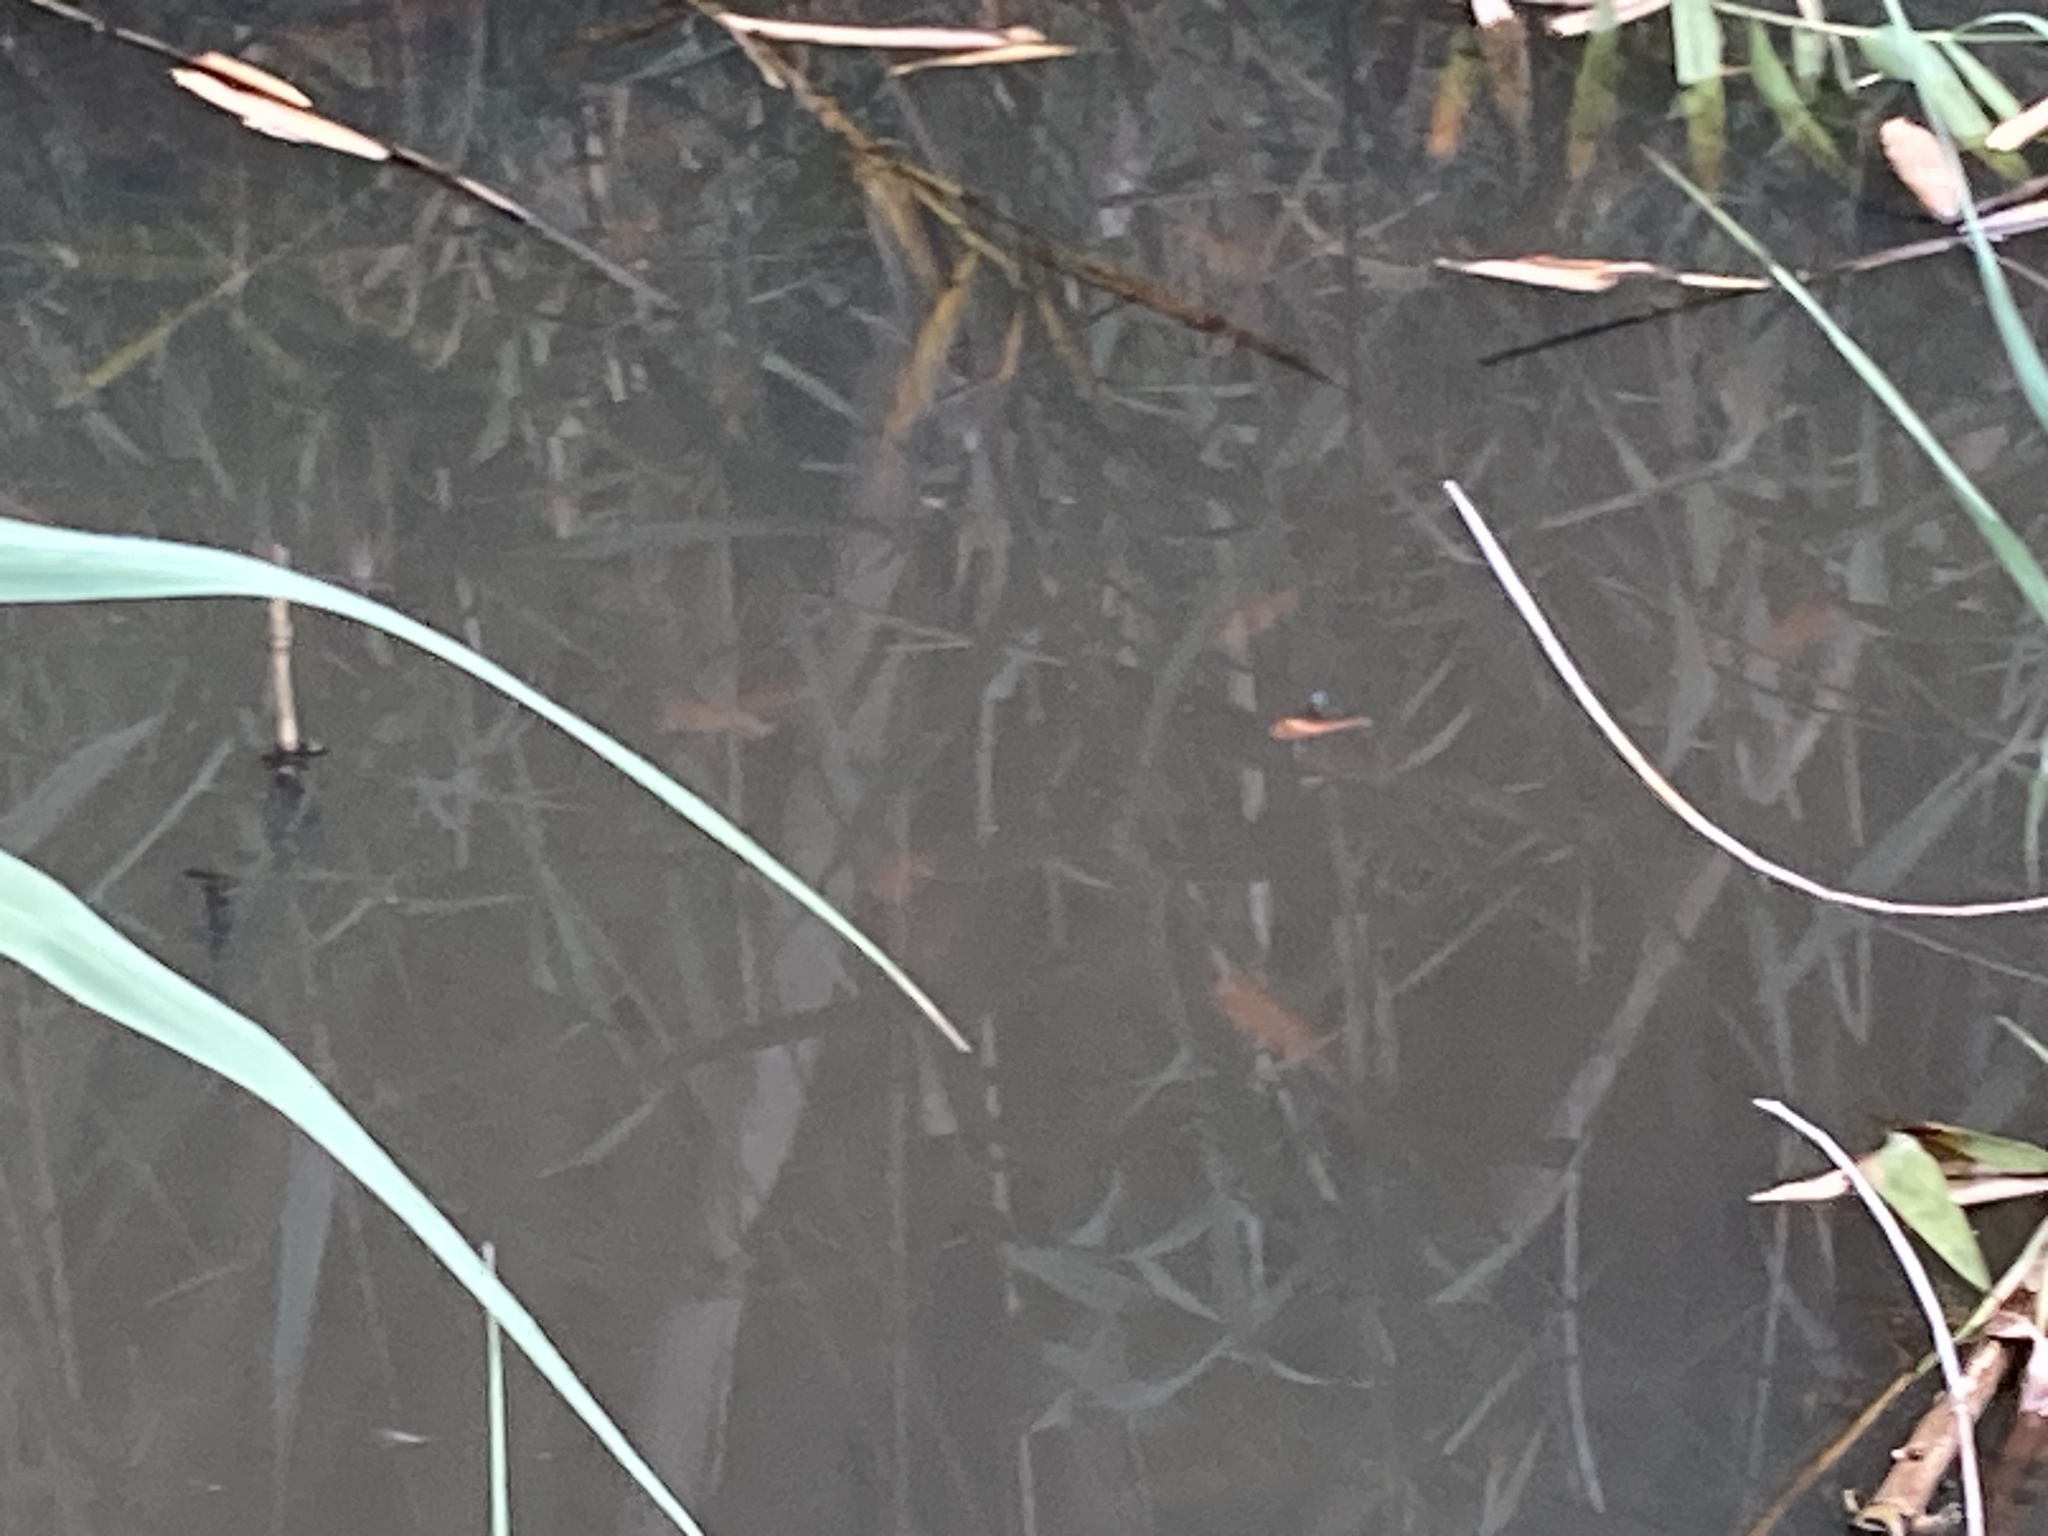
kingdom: Animalia
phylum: Arthropoda
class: Insecta
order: Odonata
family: Libellulidae
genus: Tholymis
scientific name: Tholymis tillarga
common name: Coral-tailed cloud wing
